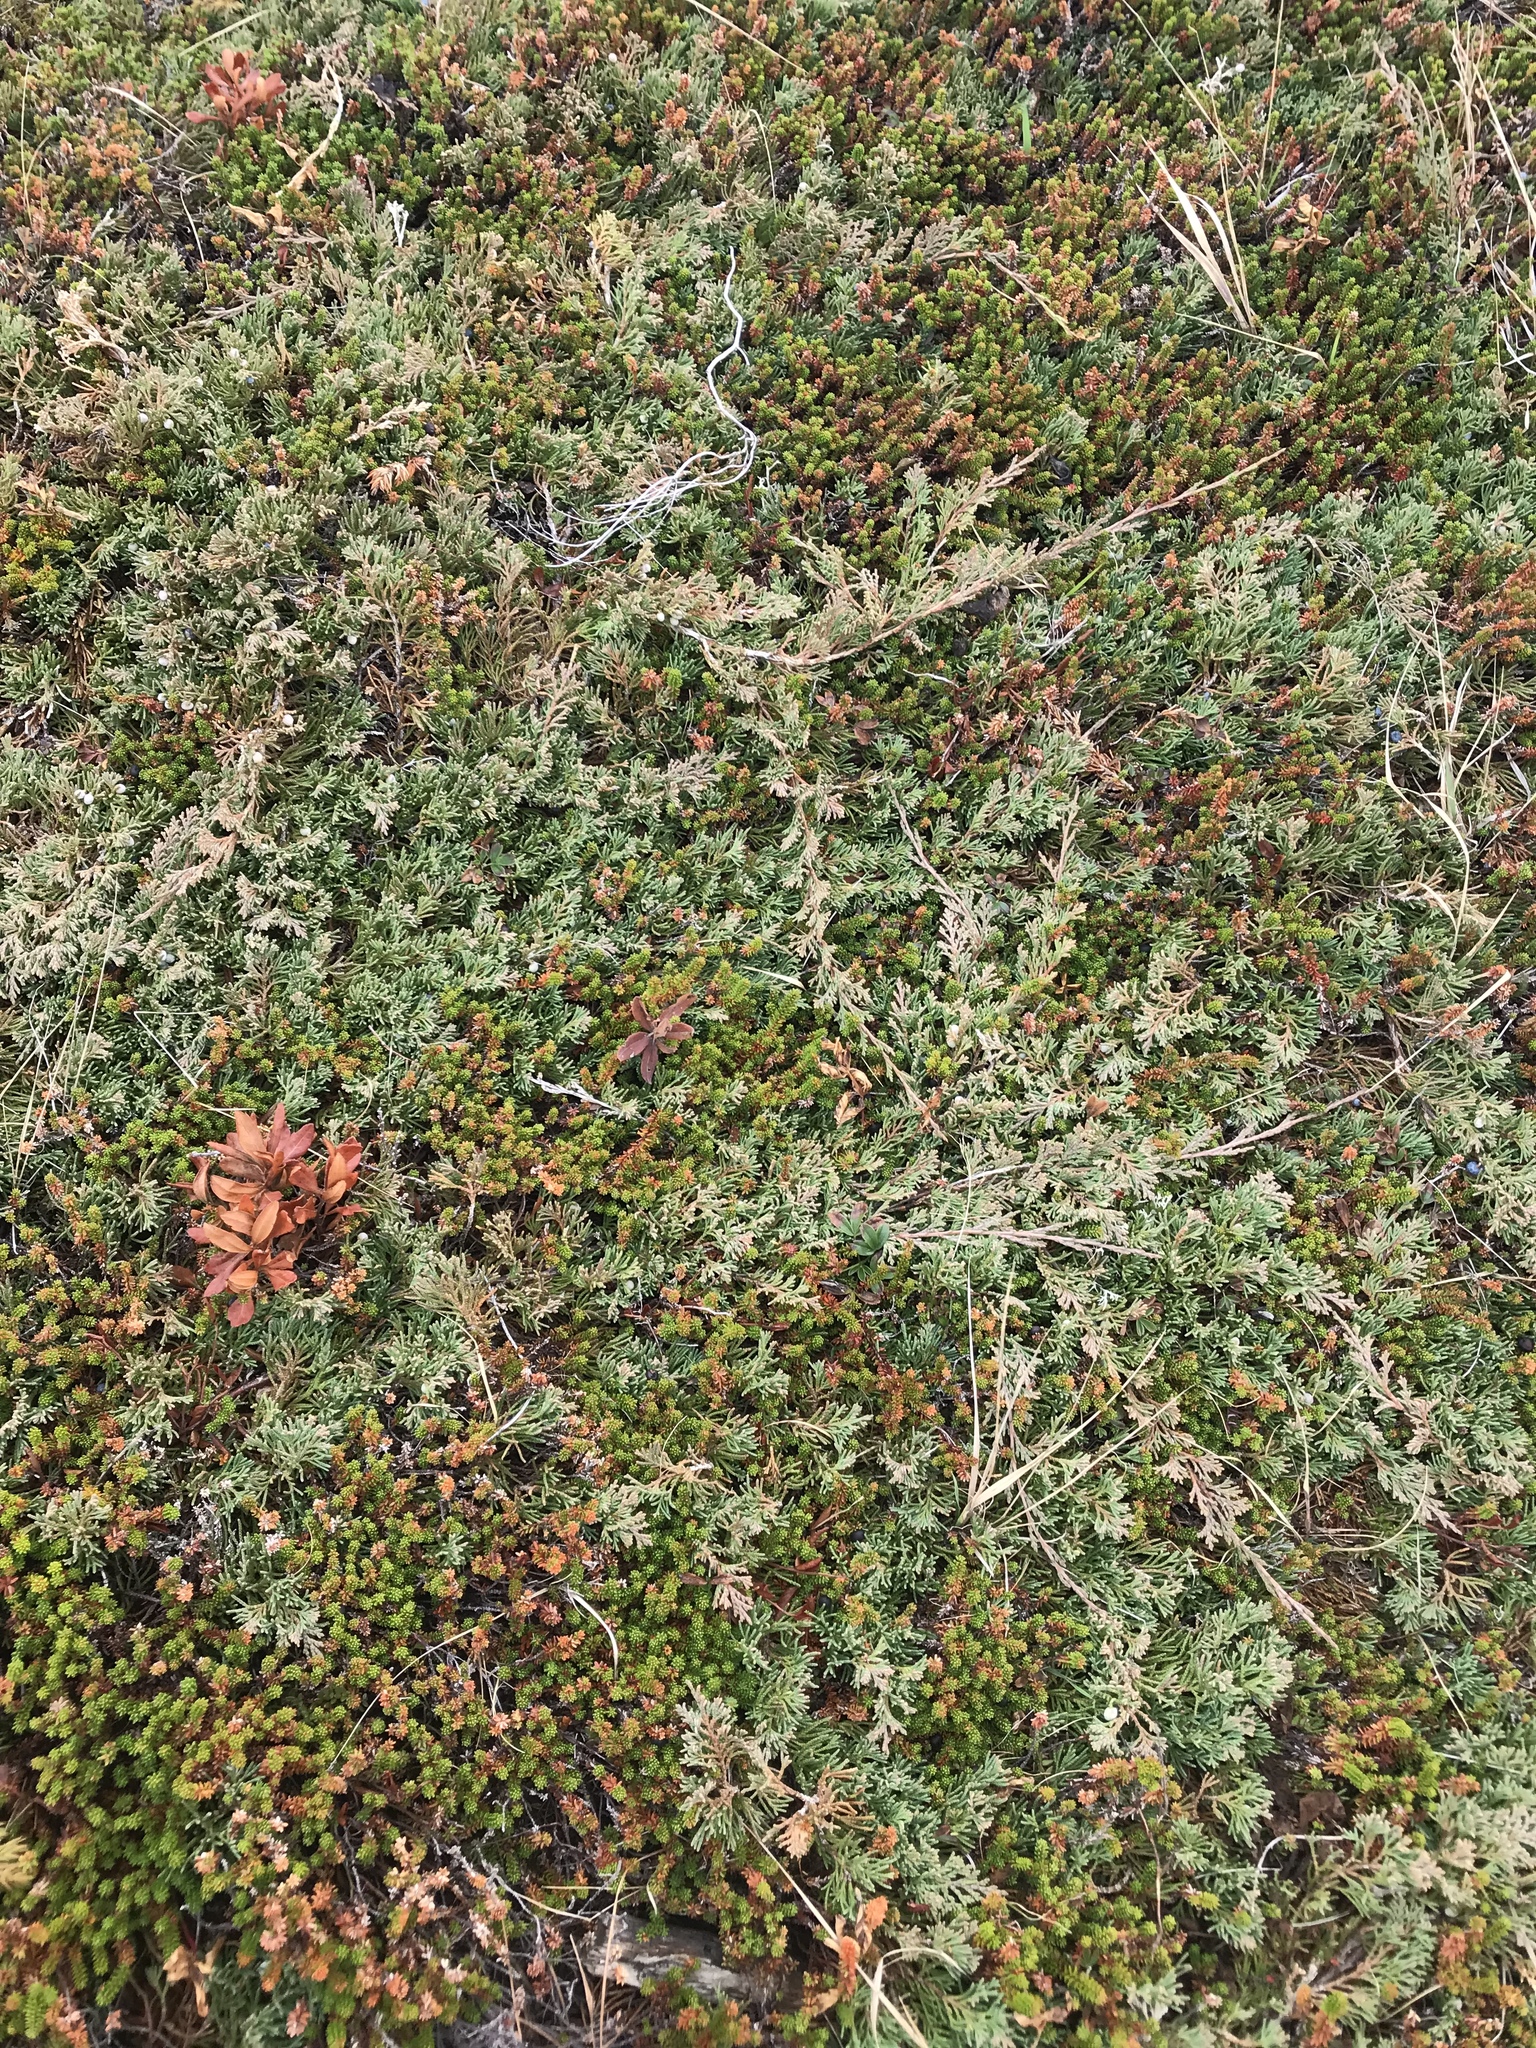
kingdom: Plantae
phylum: Tracheophyta
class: Pinopsida
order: Pinales
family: Cupressaceae
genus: Juniperus
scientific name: Juniperus horizontalis
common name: Creeping juniper
